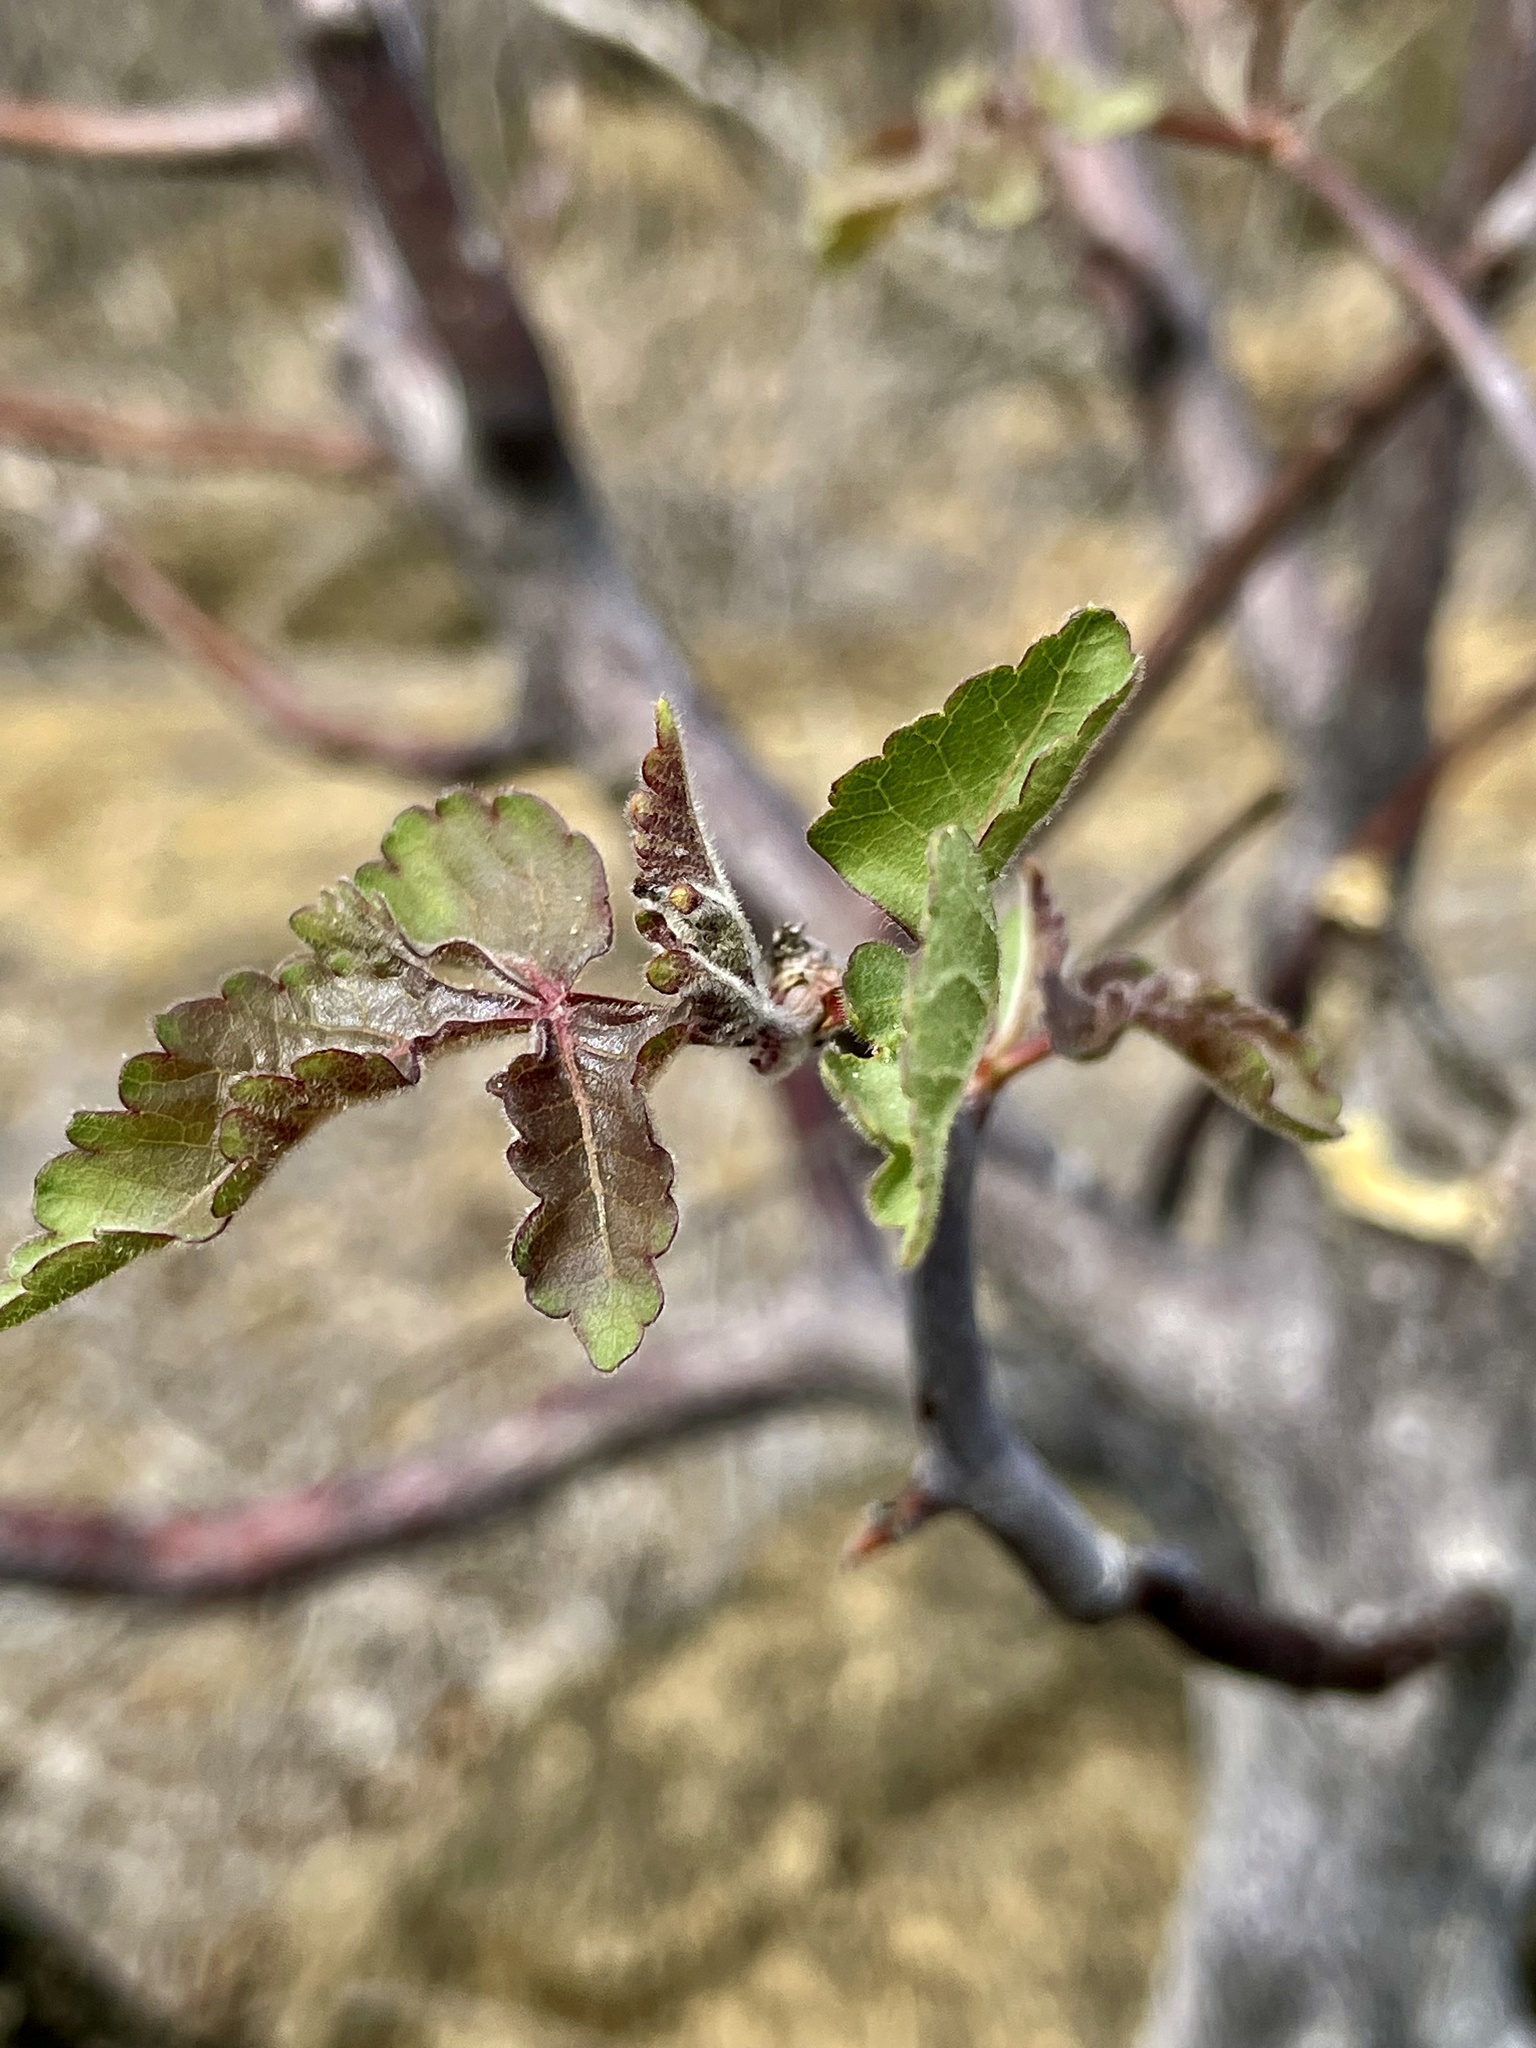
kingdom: Plantae
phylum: Tracheophyta
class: Magnoliopsida
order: Sapindales
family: Burseraceae
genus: Bursera
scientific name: Bursera graveolens
